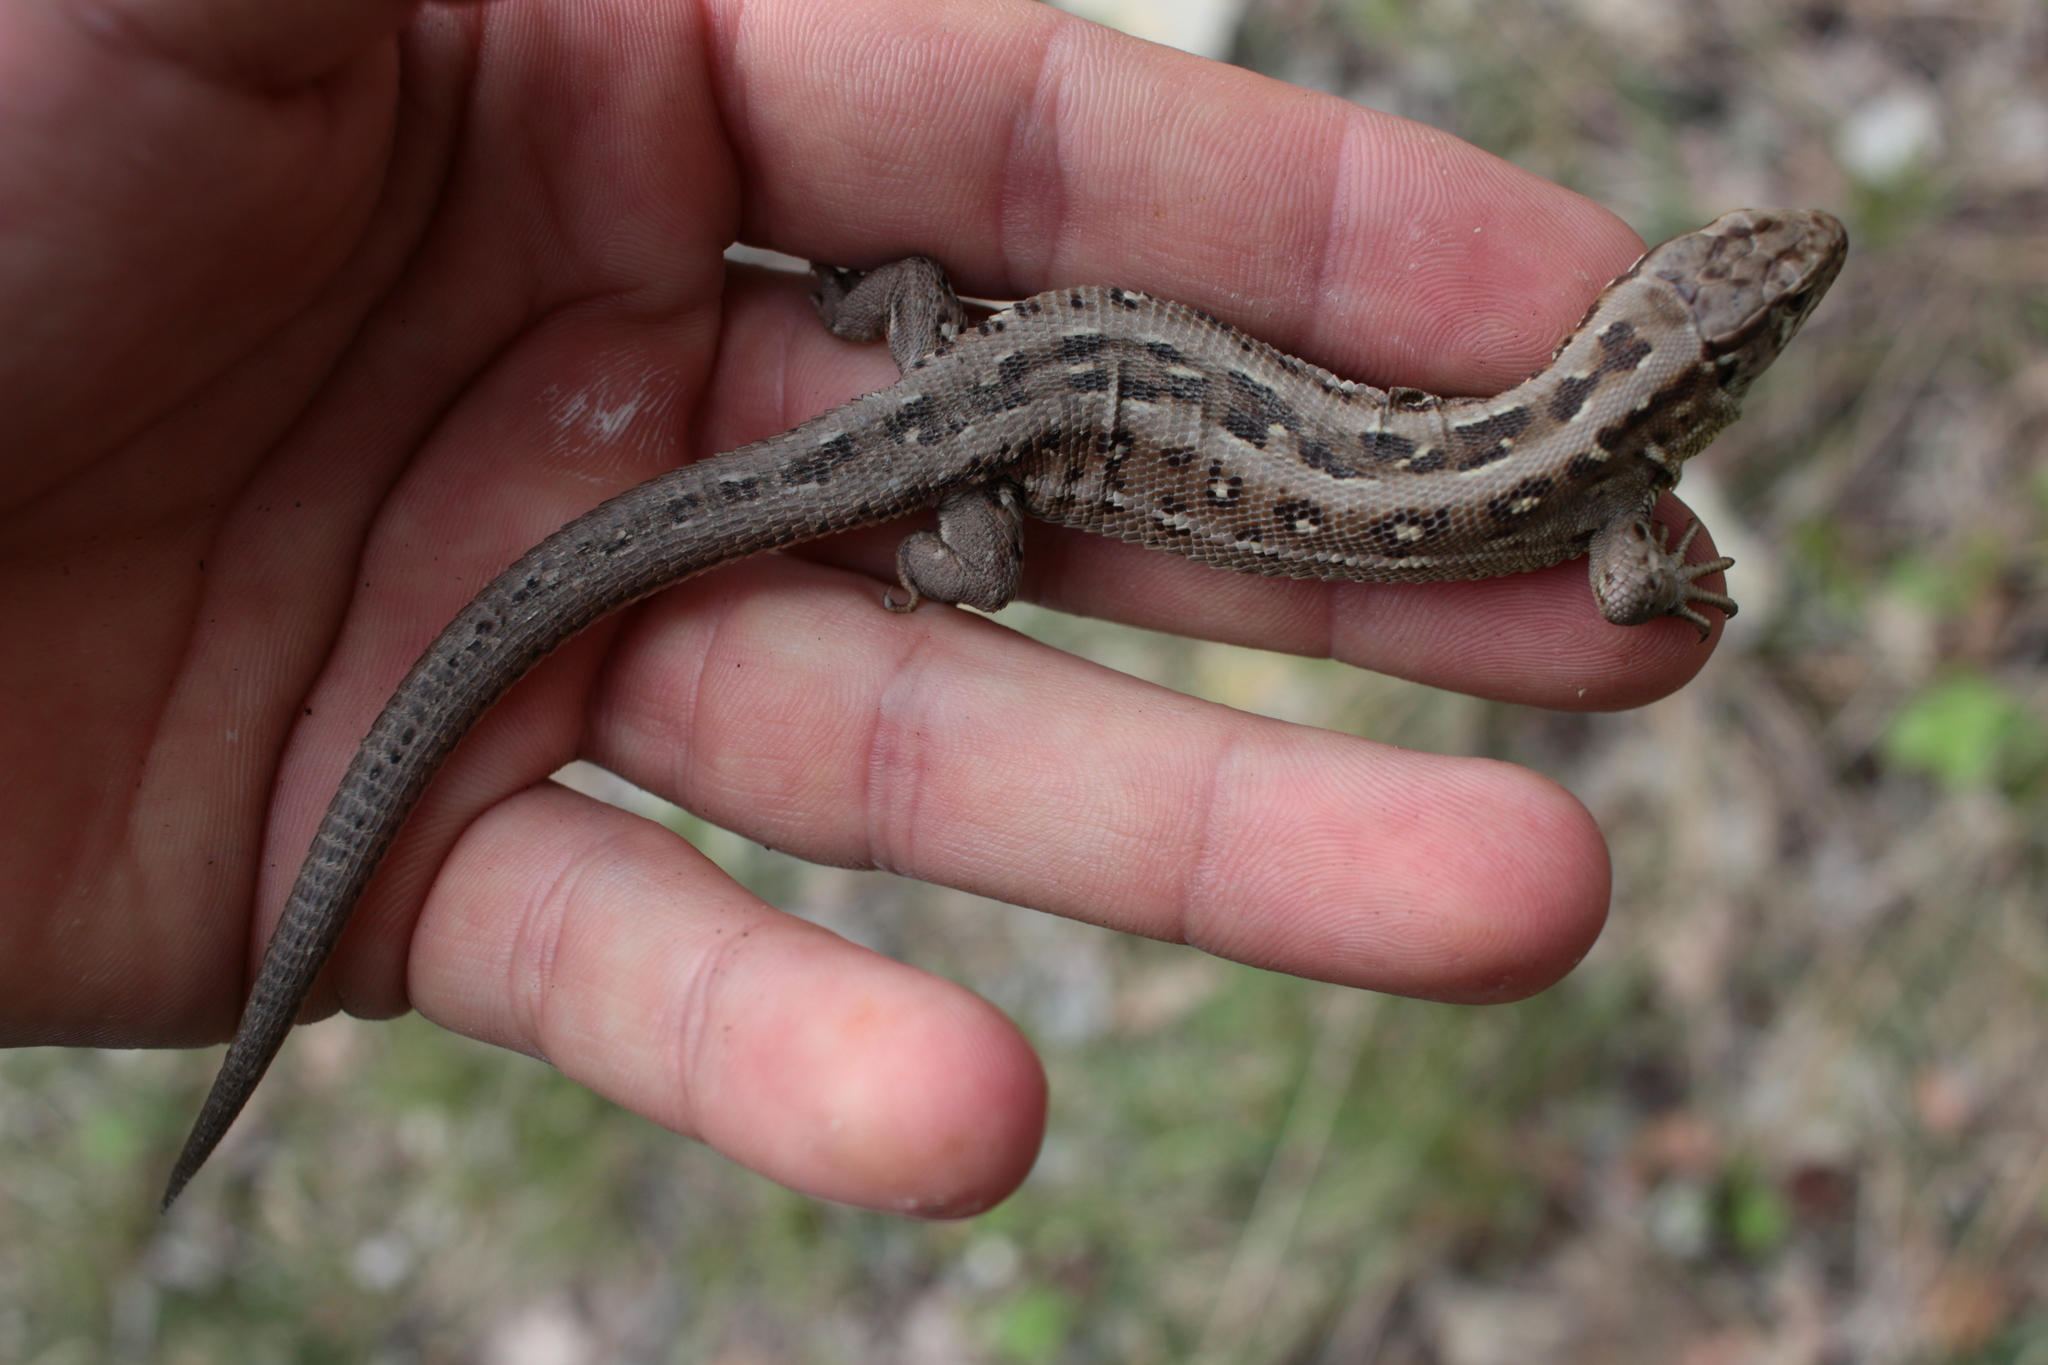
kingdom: Animalia
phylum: Chordata
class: Squamata
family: Lacertidae
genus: Lacerta
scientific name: Lacerta agilis
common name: Sand lizard
